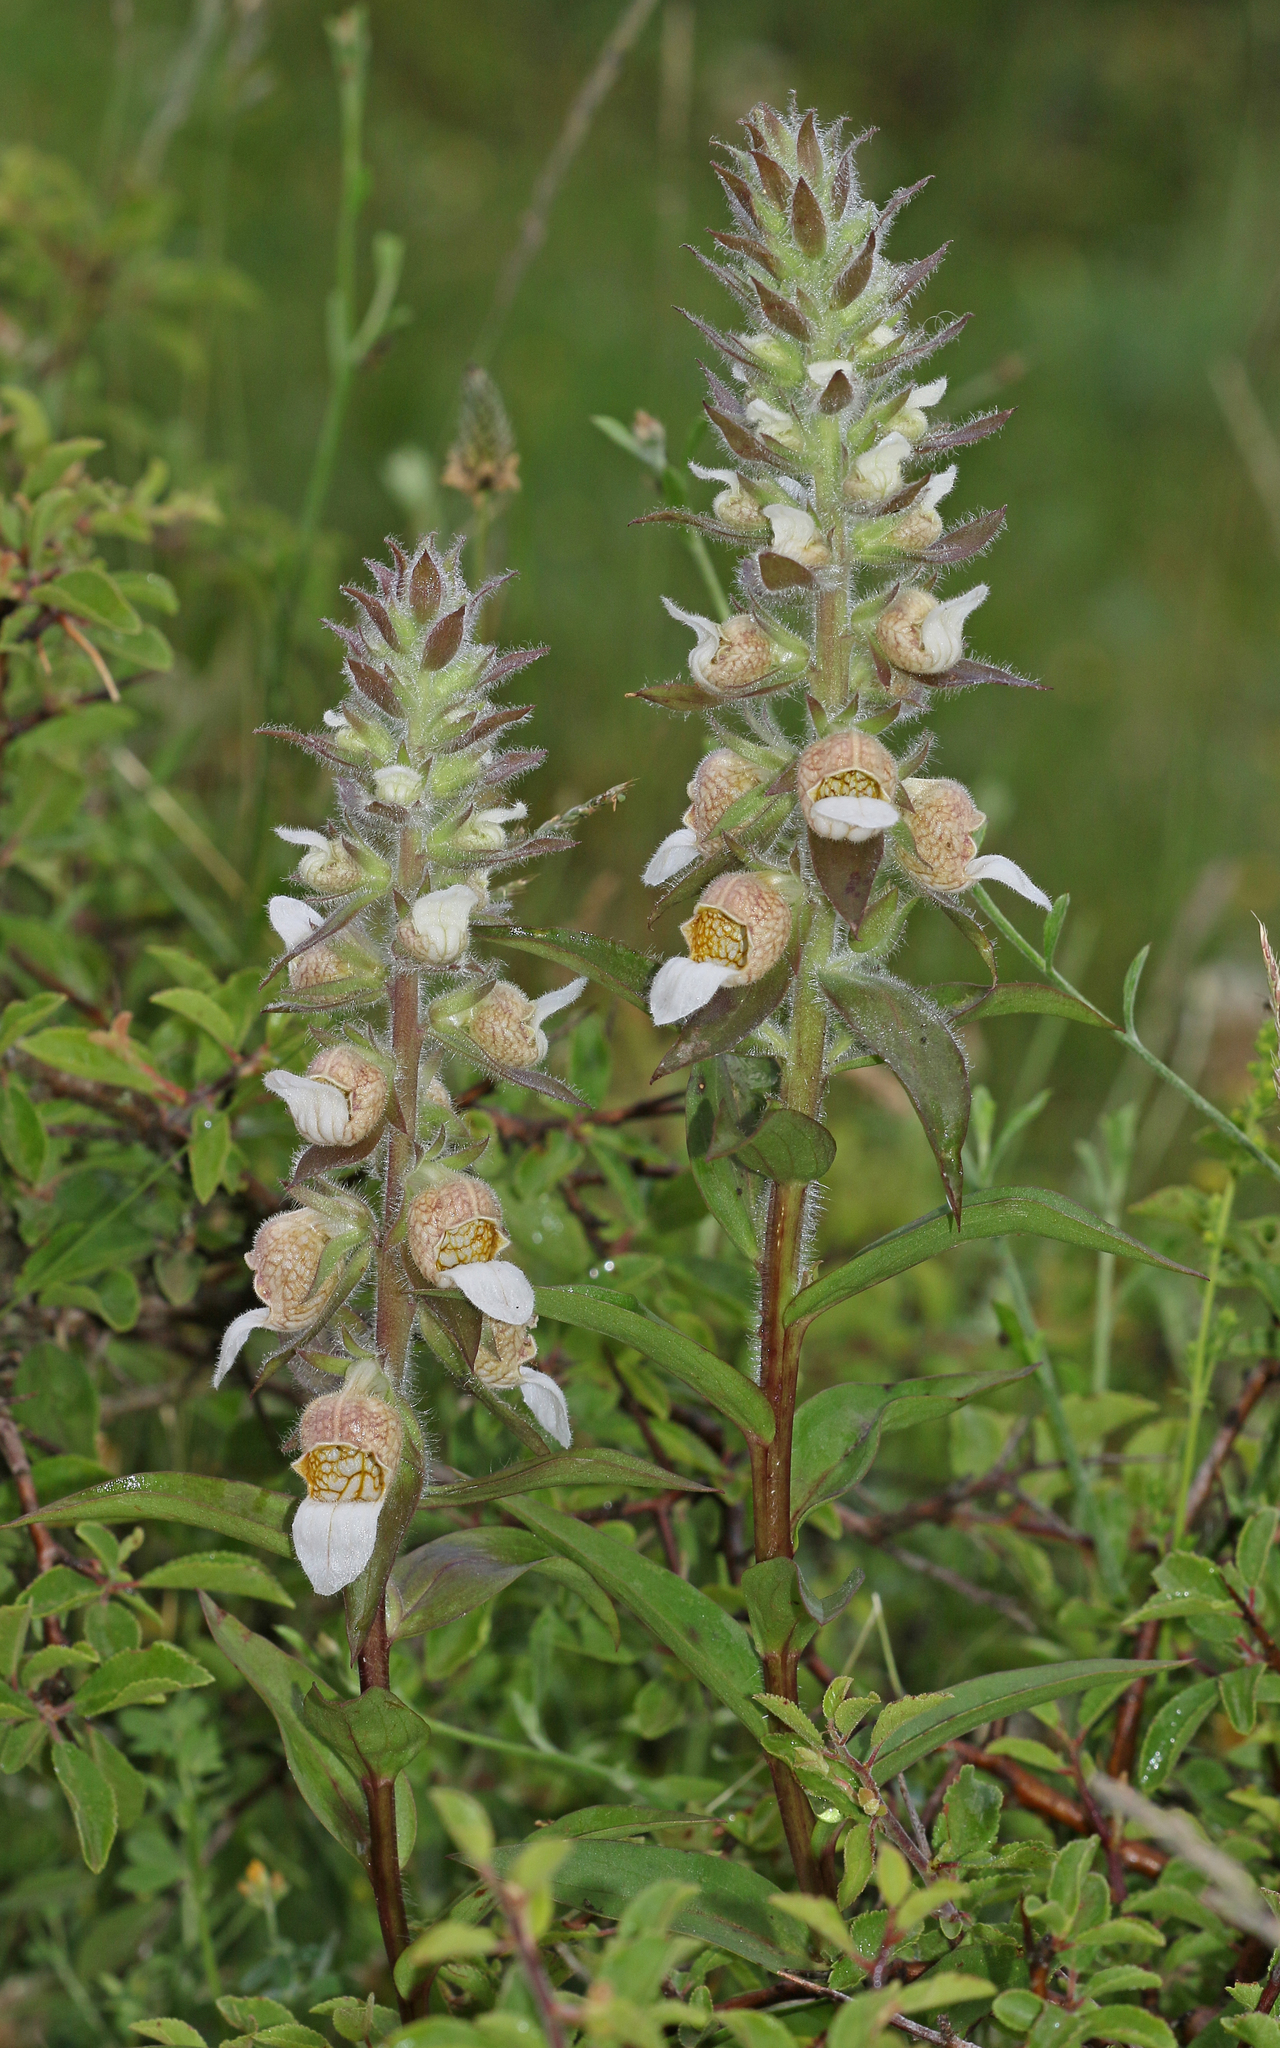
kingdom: Plantae
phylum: Tracheophyta
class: Magnoliopsida
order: Lamiales
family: Plantaginaceae
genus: Digitalis
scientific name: Digitalis lanata
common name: Grecian foxglove
